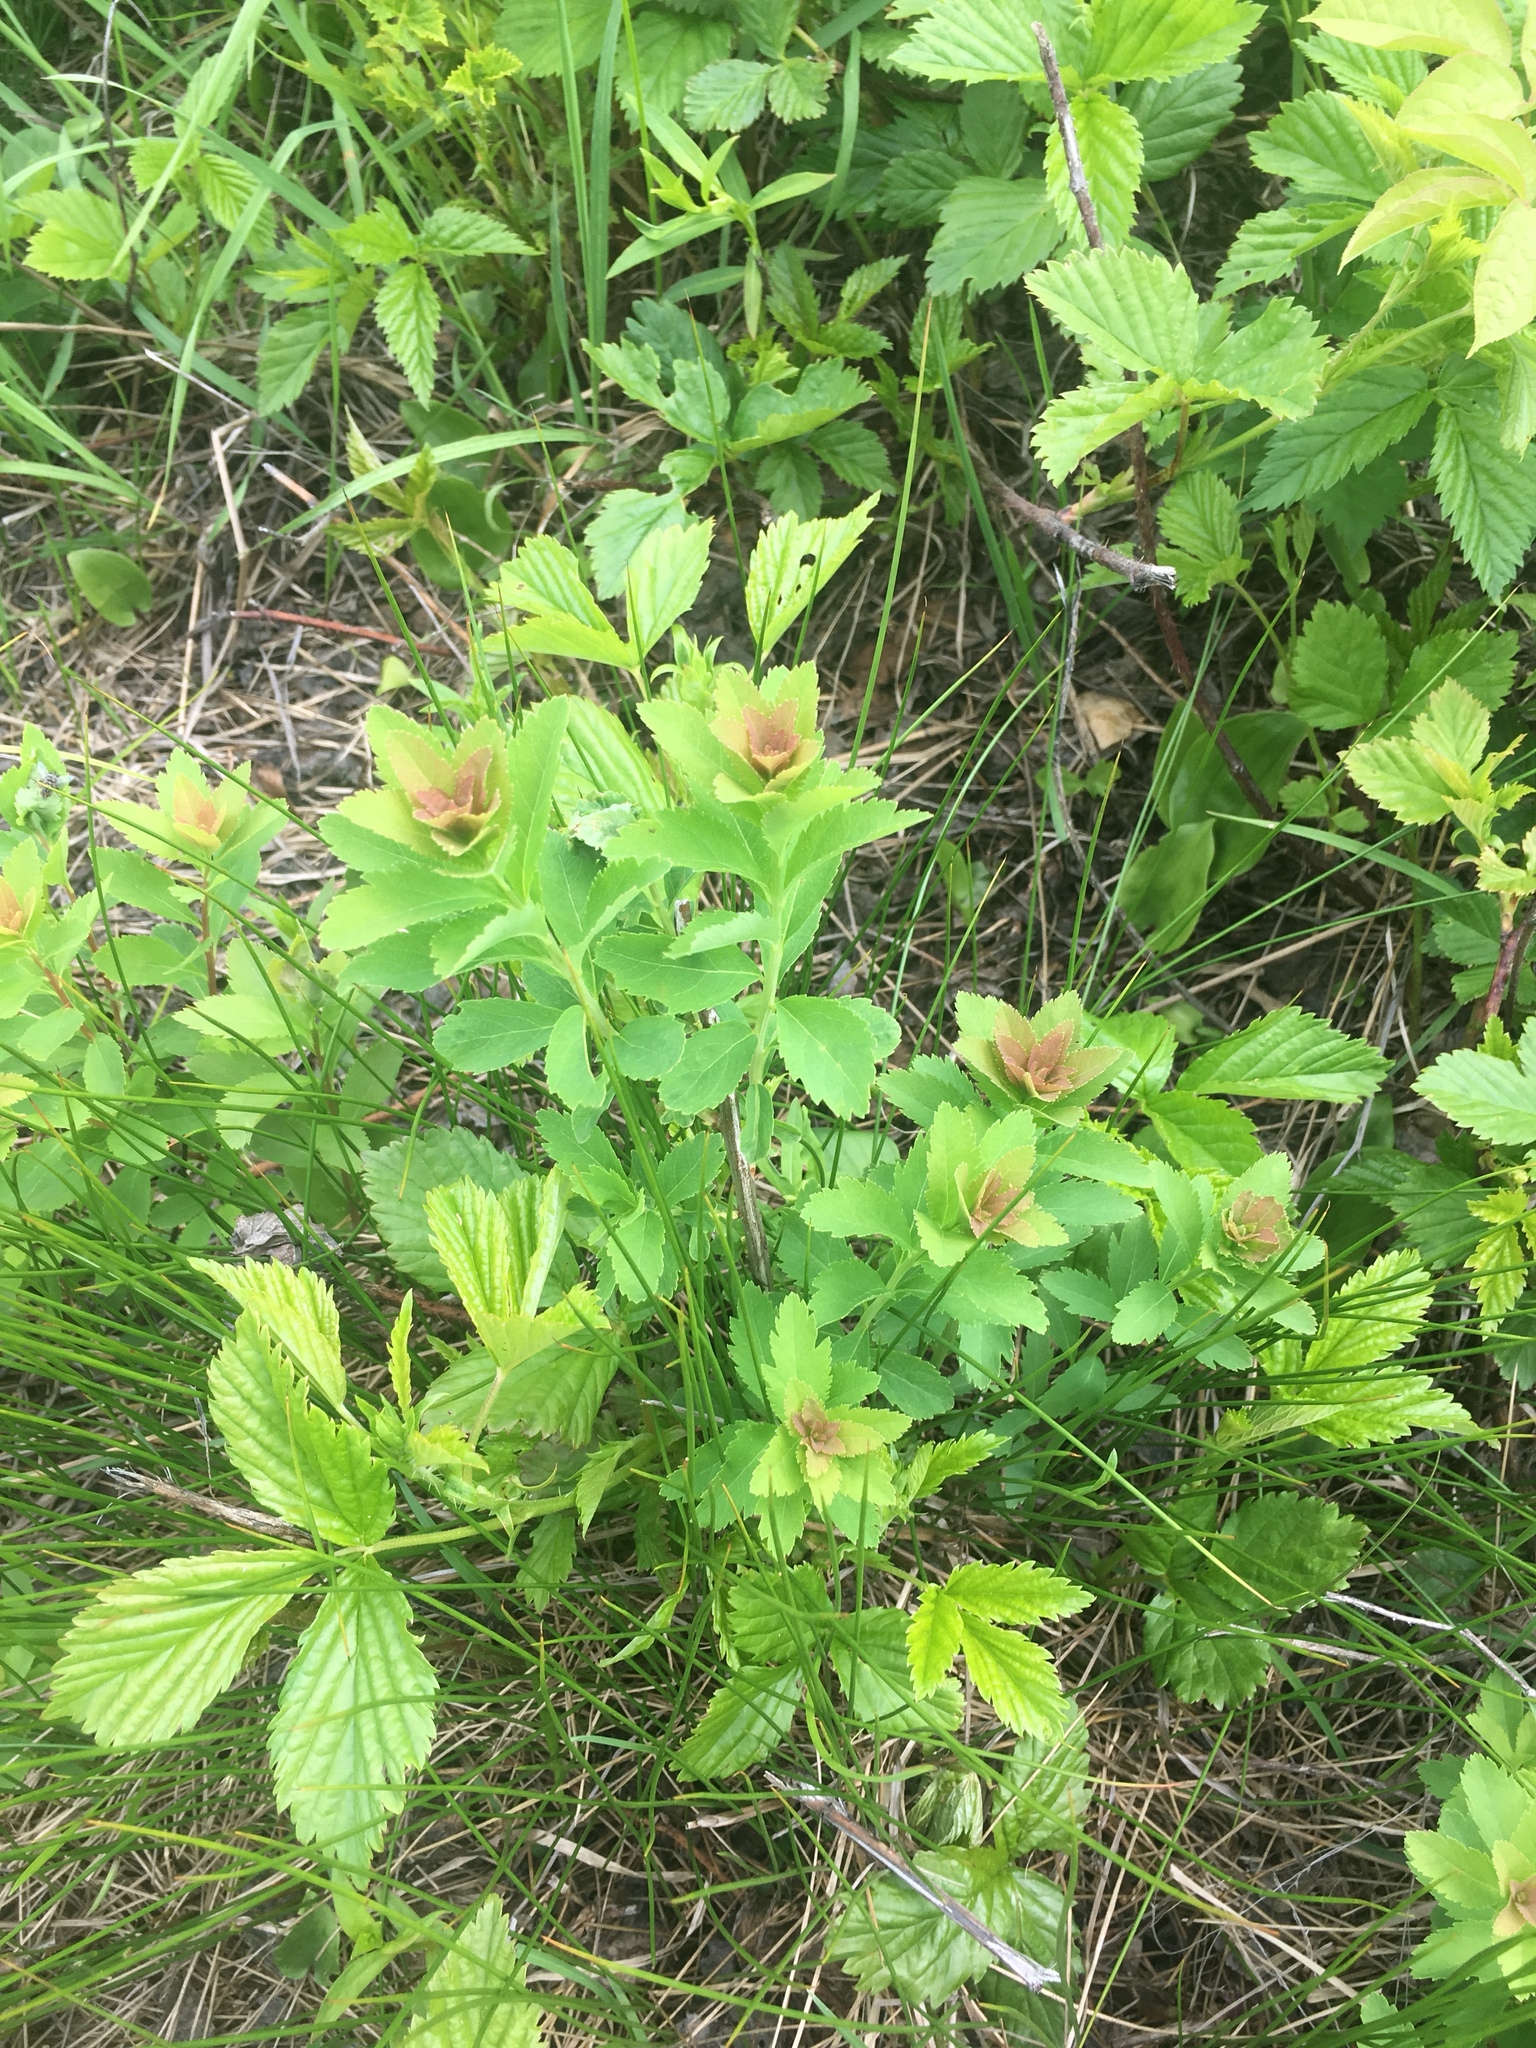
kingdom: Plantae
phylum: Tracheophyta
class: Magnoliopsida
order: Rosales
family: Rosaceae
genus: Spiraea
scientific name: Spiraea alba
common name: Pale bridewort
